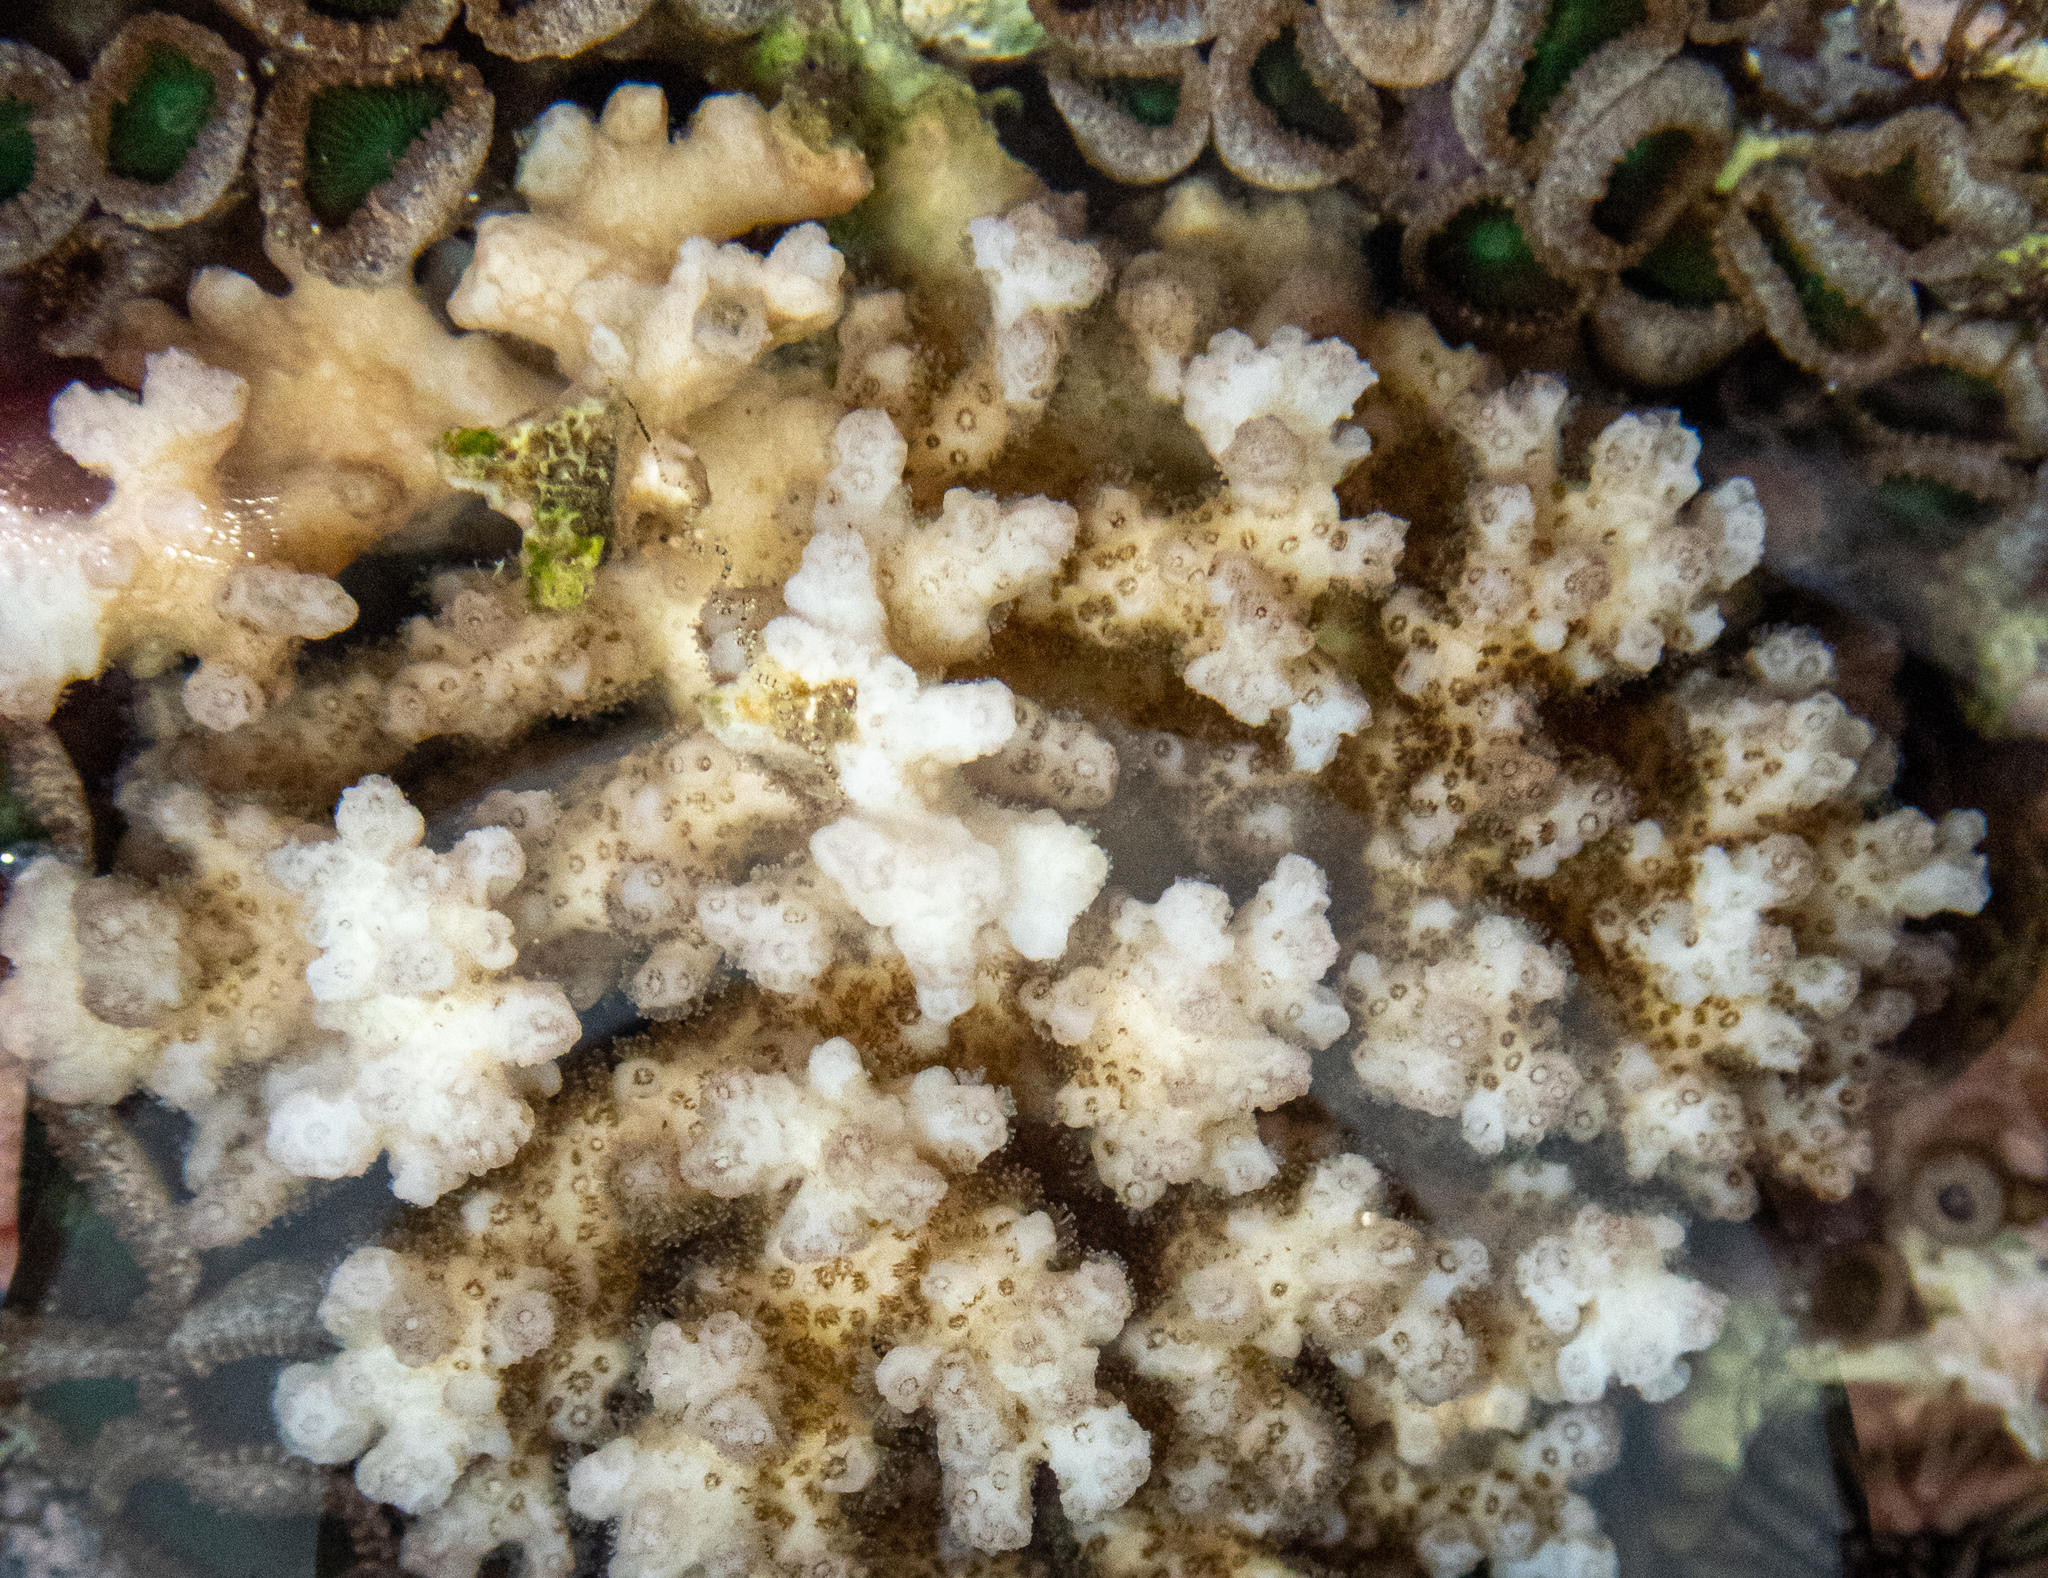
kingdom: Animalia
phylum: Cnidaria
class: Anthozoa
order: Scleractinia
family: Pocilloporidae
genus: Pocillopora
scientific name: Pocillopora damicornis
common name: Cauliflower coral
